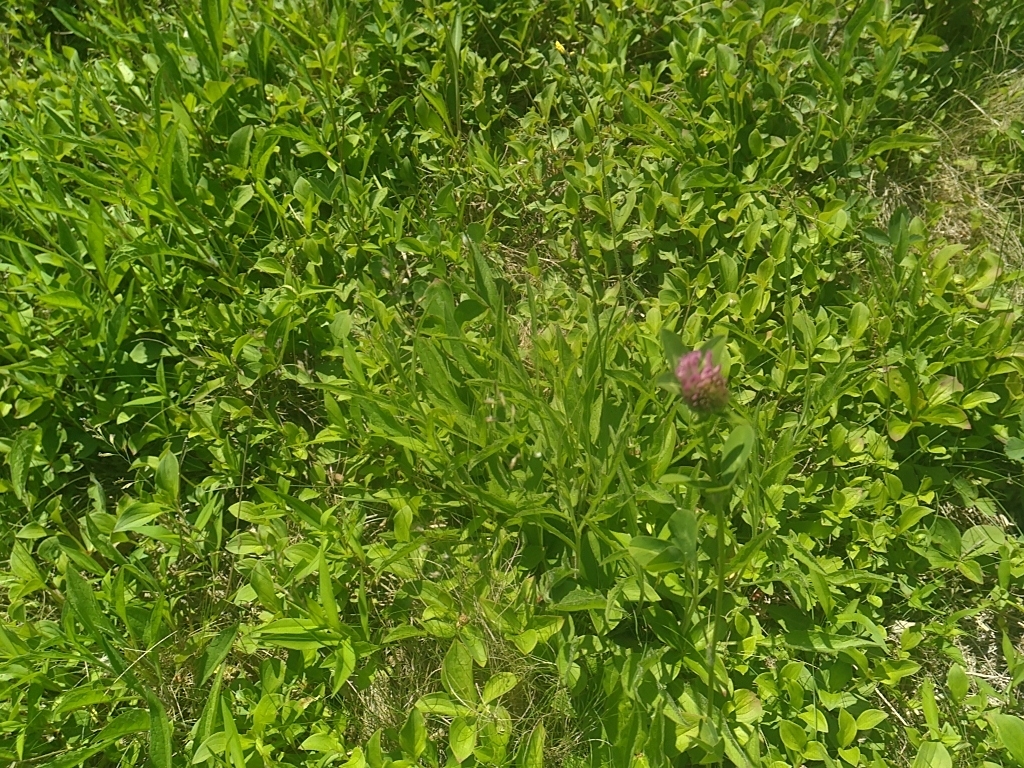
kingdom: Plantae
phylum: Tracheophyta
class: Magnoliopsida
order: Fabales
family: Fabaceae
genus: Trifolium
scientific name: Trifolium pratense
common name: Red clover
